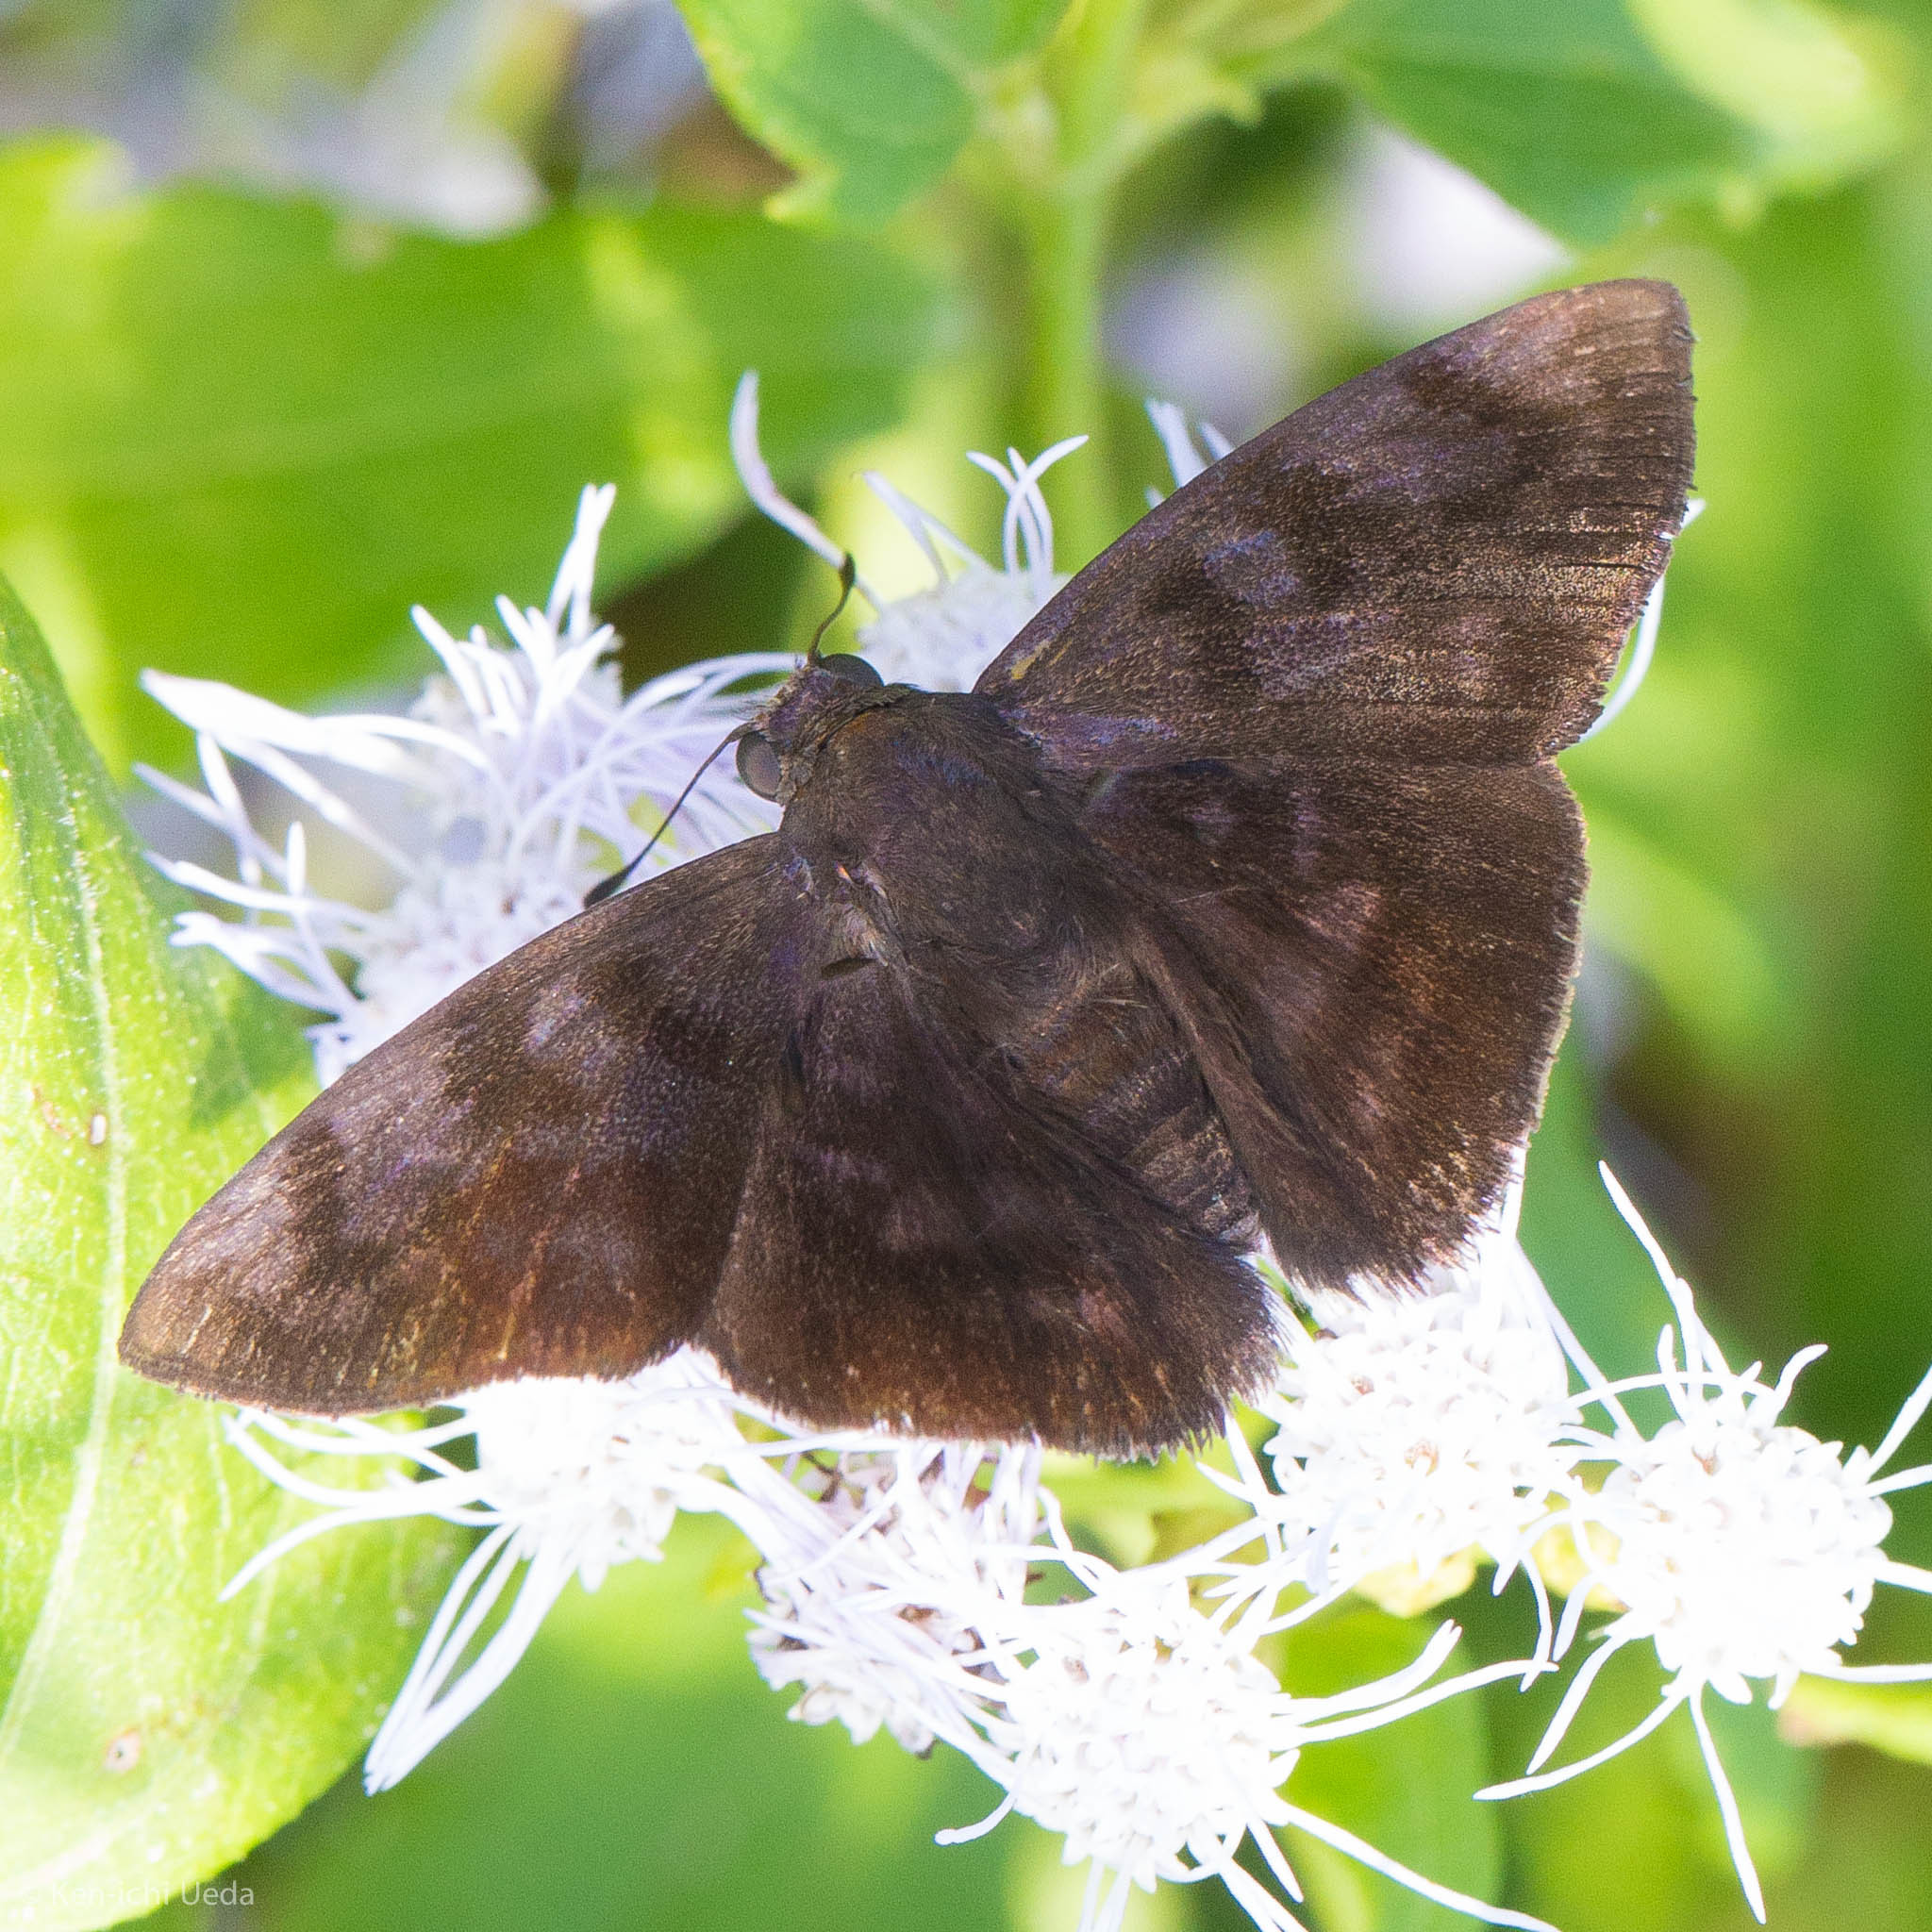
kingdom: Animalia
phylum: Arthropoda
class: Insecta
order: Lepidoptera
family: Hesperiidae
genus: Pellicia
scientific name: Pellicia costimacula
